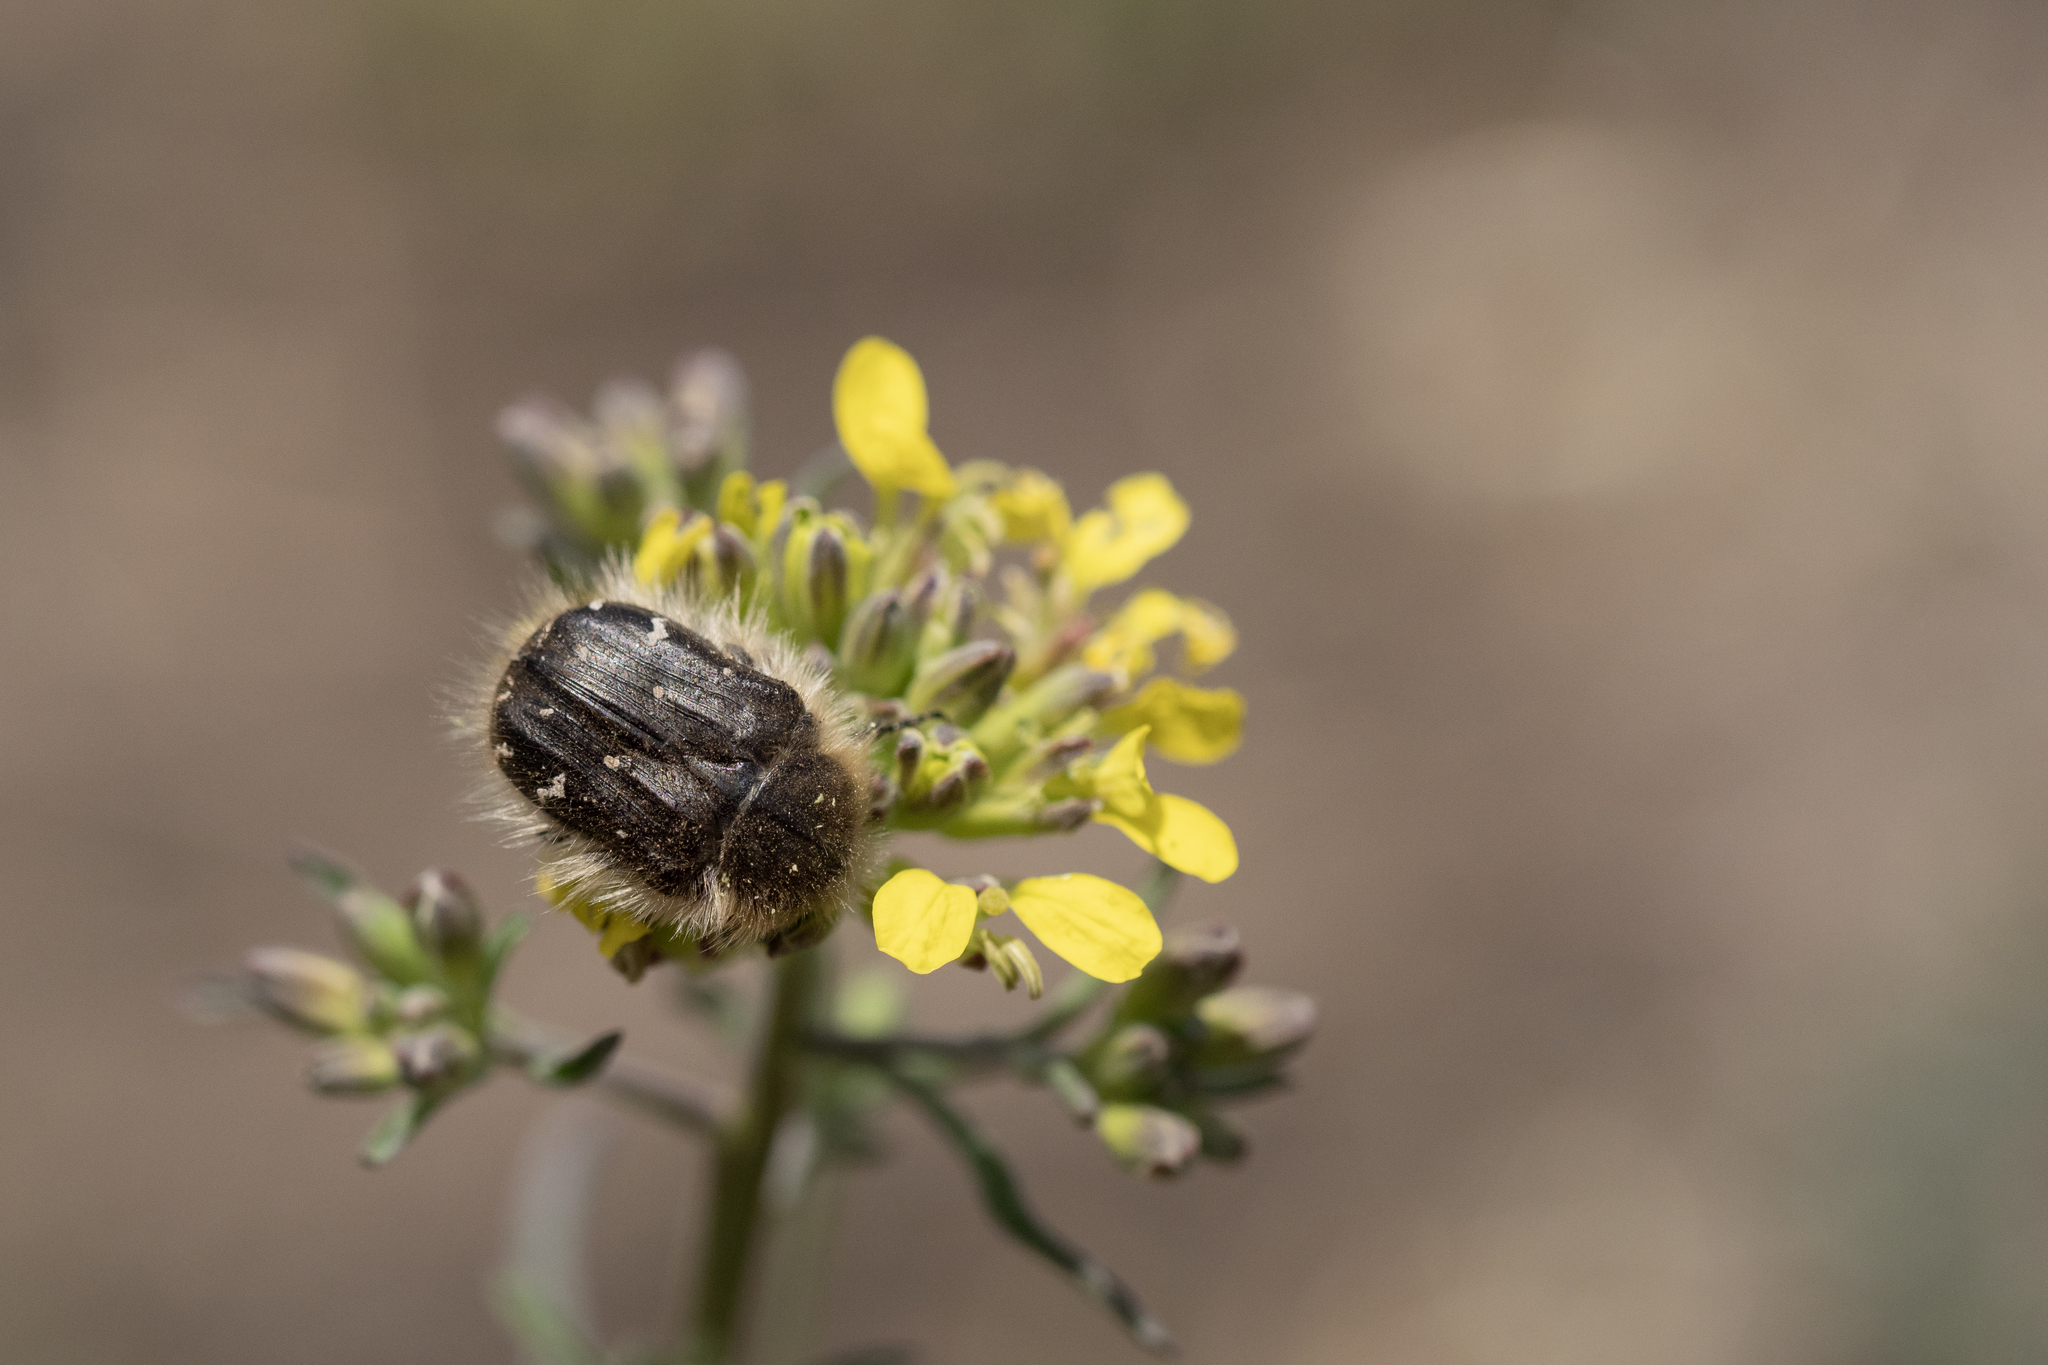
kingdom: Animalia
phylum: Arthropoda
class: Insecta
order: Coleoptera
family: Scarabaeidae
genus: Tropinota
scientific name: Tropinota hirta
